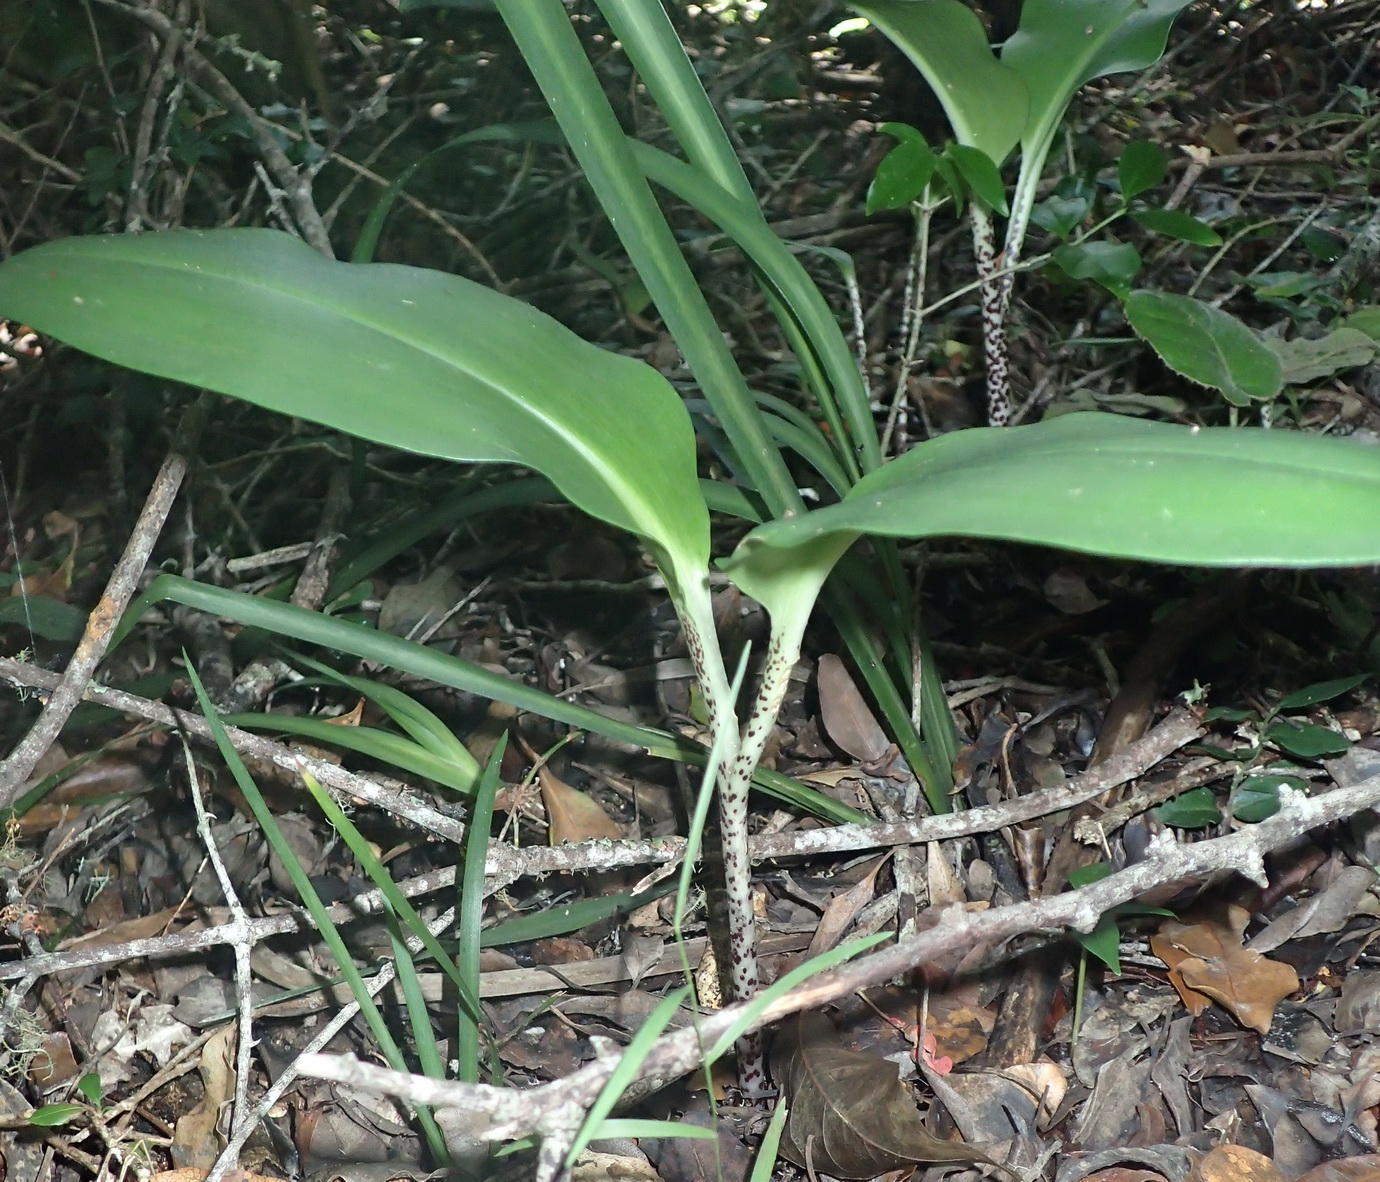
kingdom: Plantae
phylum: Tracheophyta
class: Liliopsida
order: Asparagales
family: Amaryllidaceae
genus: Scadoxus
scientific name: Scadoxus puniceus
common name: Royal-paintbrush
